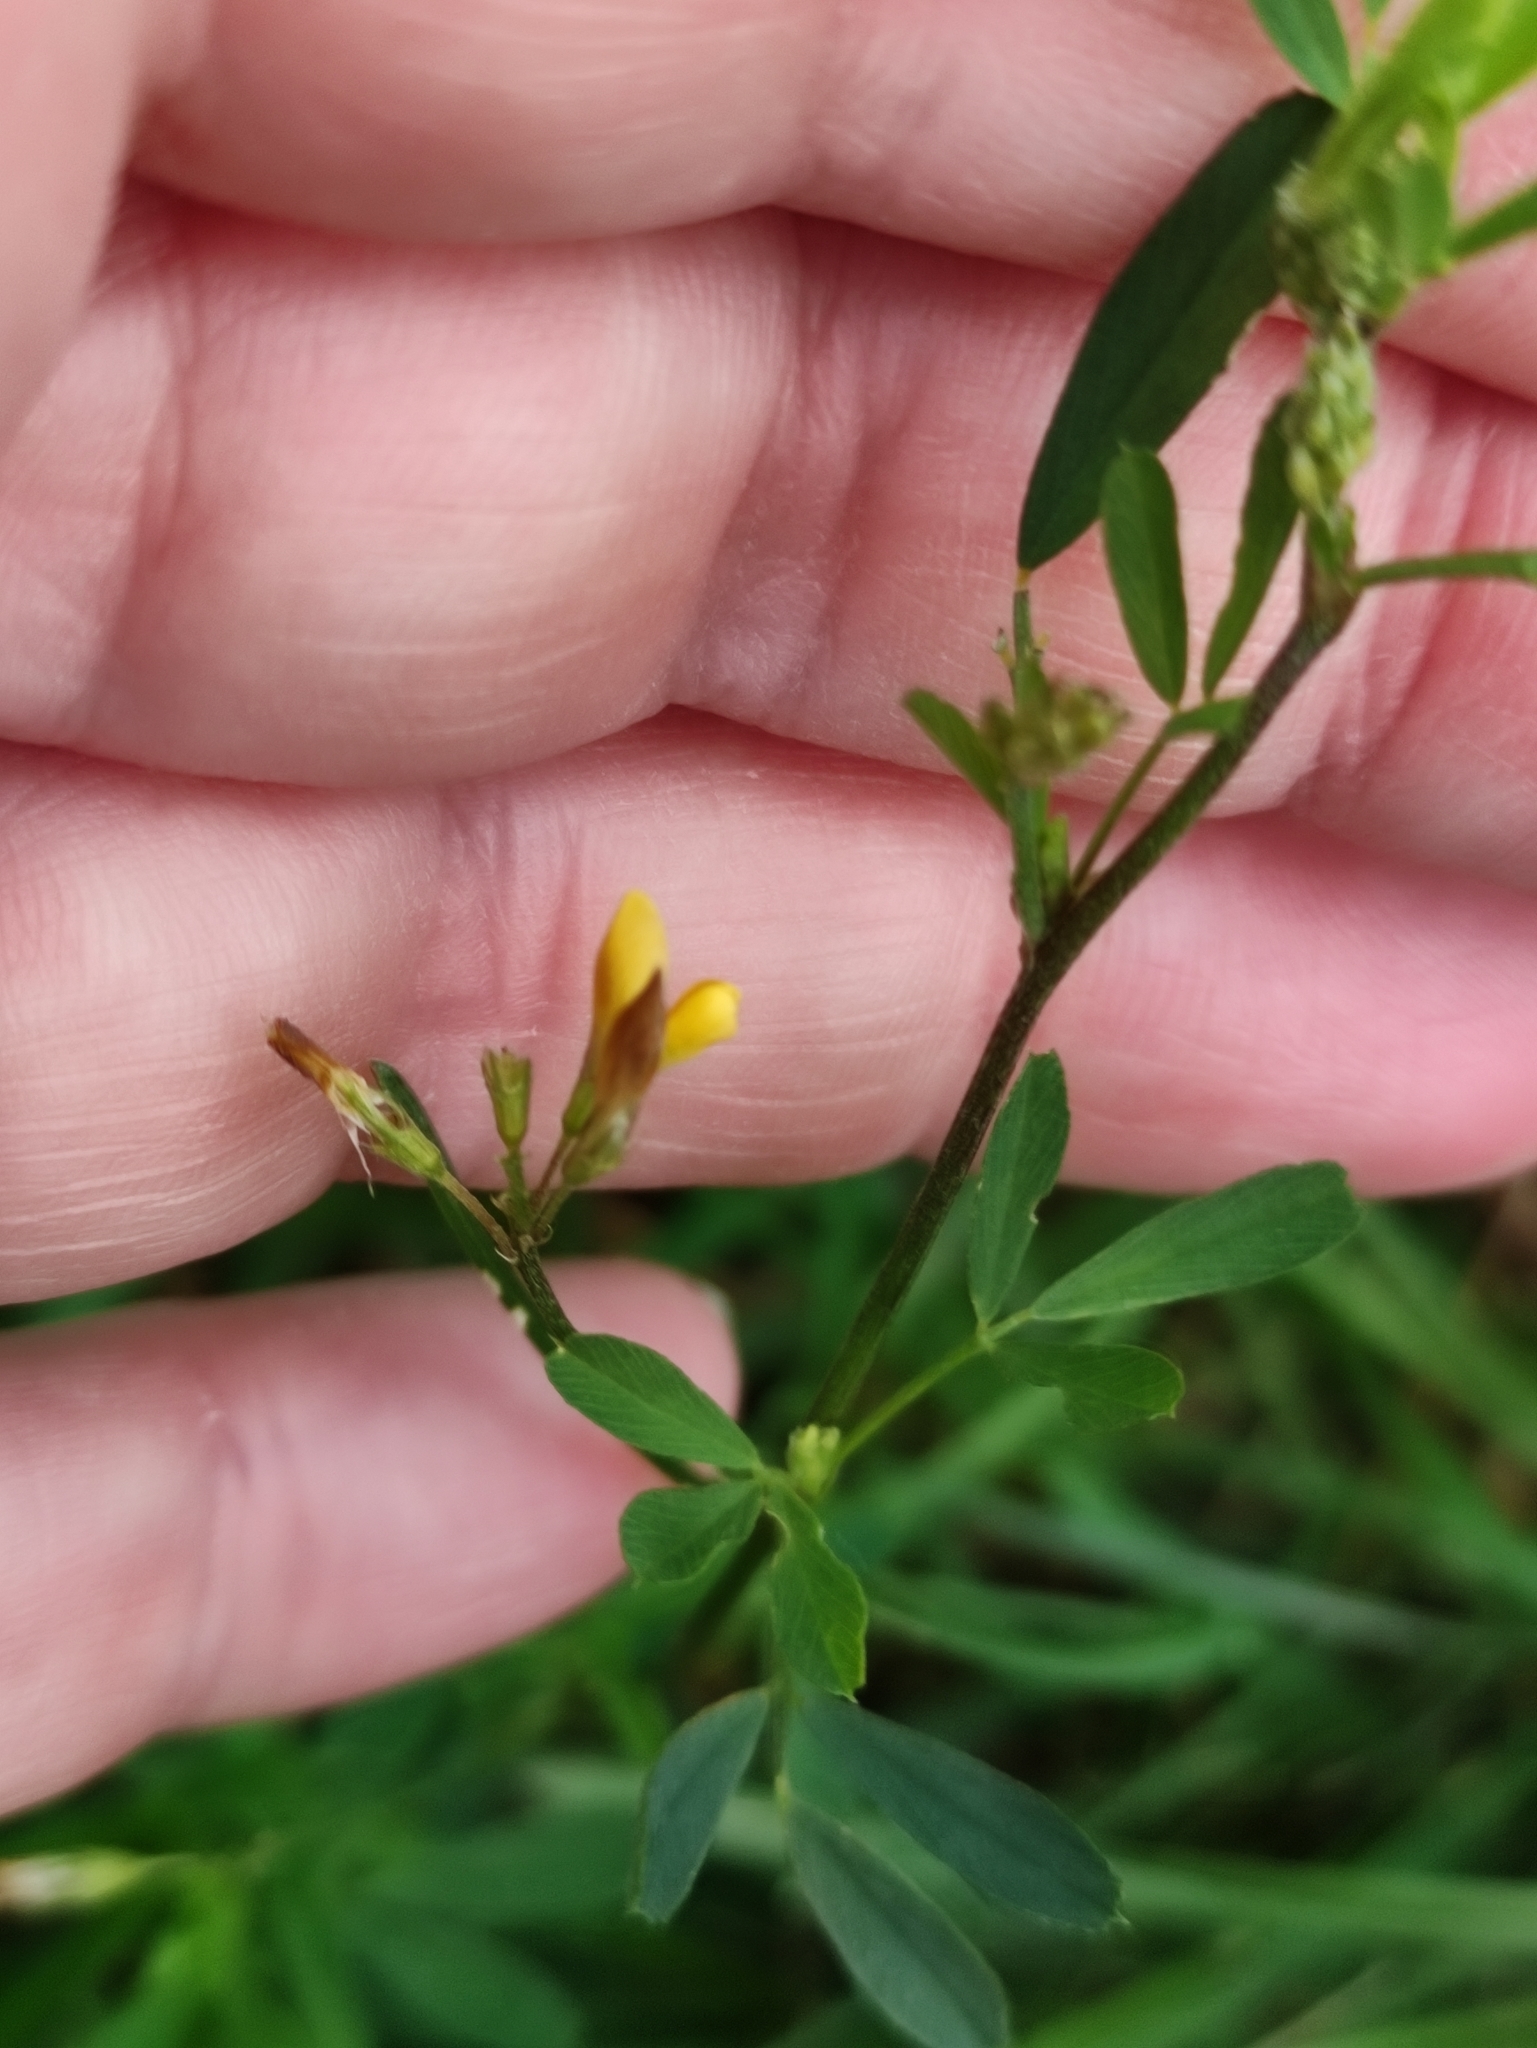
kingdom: Plantae
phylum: Tracheophyta
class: Magnoliopsida
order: Fabales
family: Fabaceae
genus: Medicago
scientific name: Medicago falcata
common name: Sickle medick
